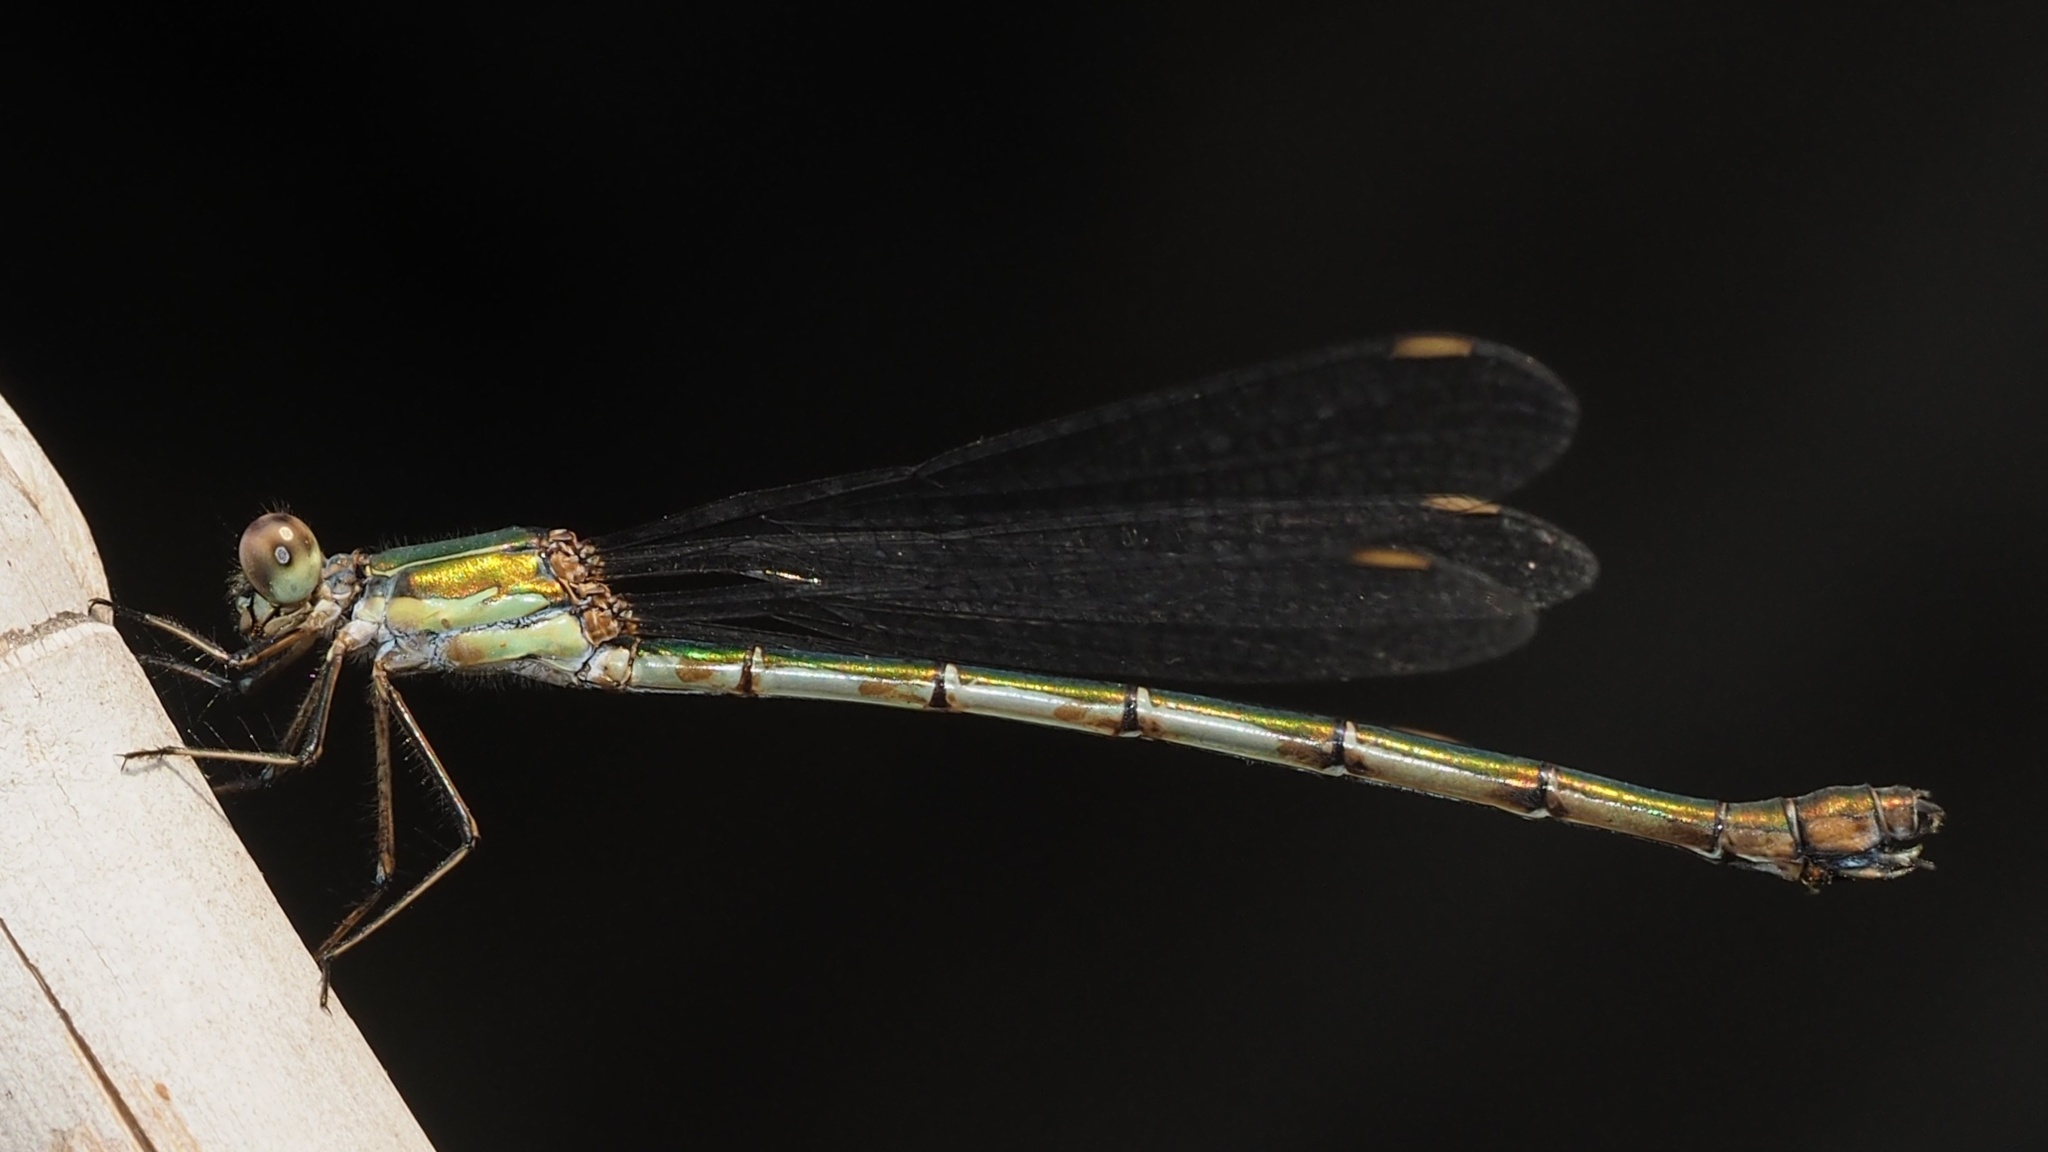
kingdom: Animalia
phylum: Arthropoda
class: Insecta
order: Odonata
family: Lestidae
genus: Chalcolestes
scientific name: Chalcolestes viridis
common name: Green emerald damselfly
